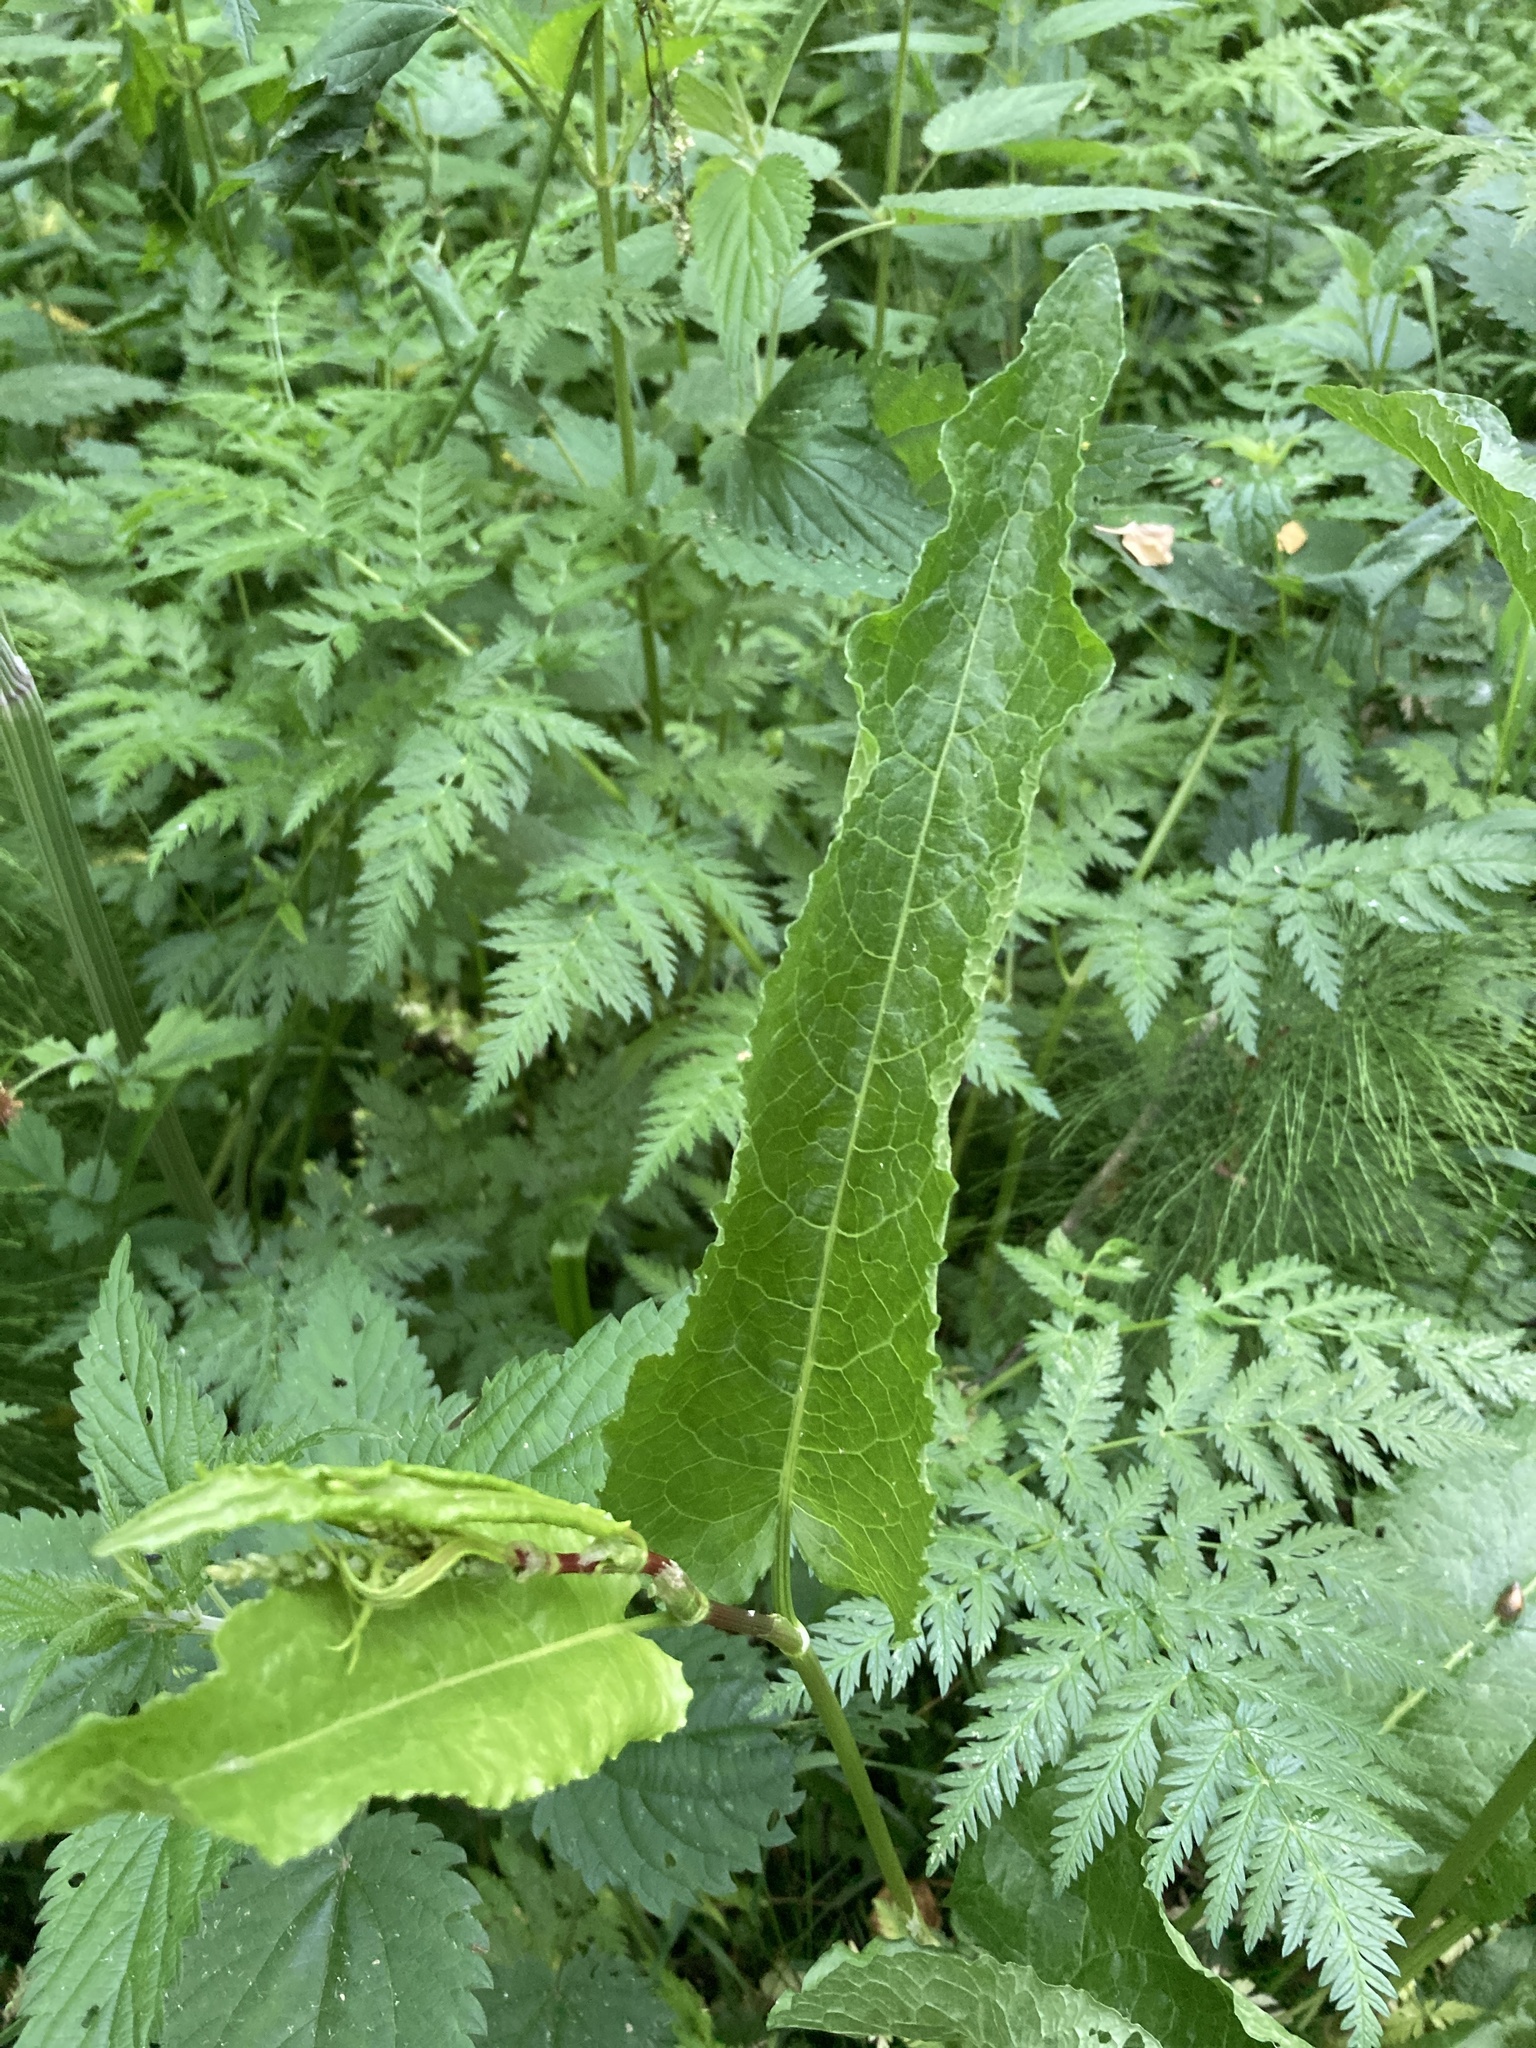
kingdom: Plantae
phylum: Tracheophyta
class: Magnoliopsida
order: Caryophyllales
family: Polygonaceae
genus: Rumex
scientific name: Rumex obtusifolius
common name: Bitter dock
